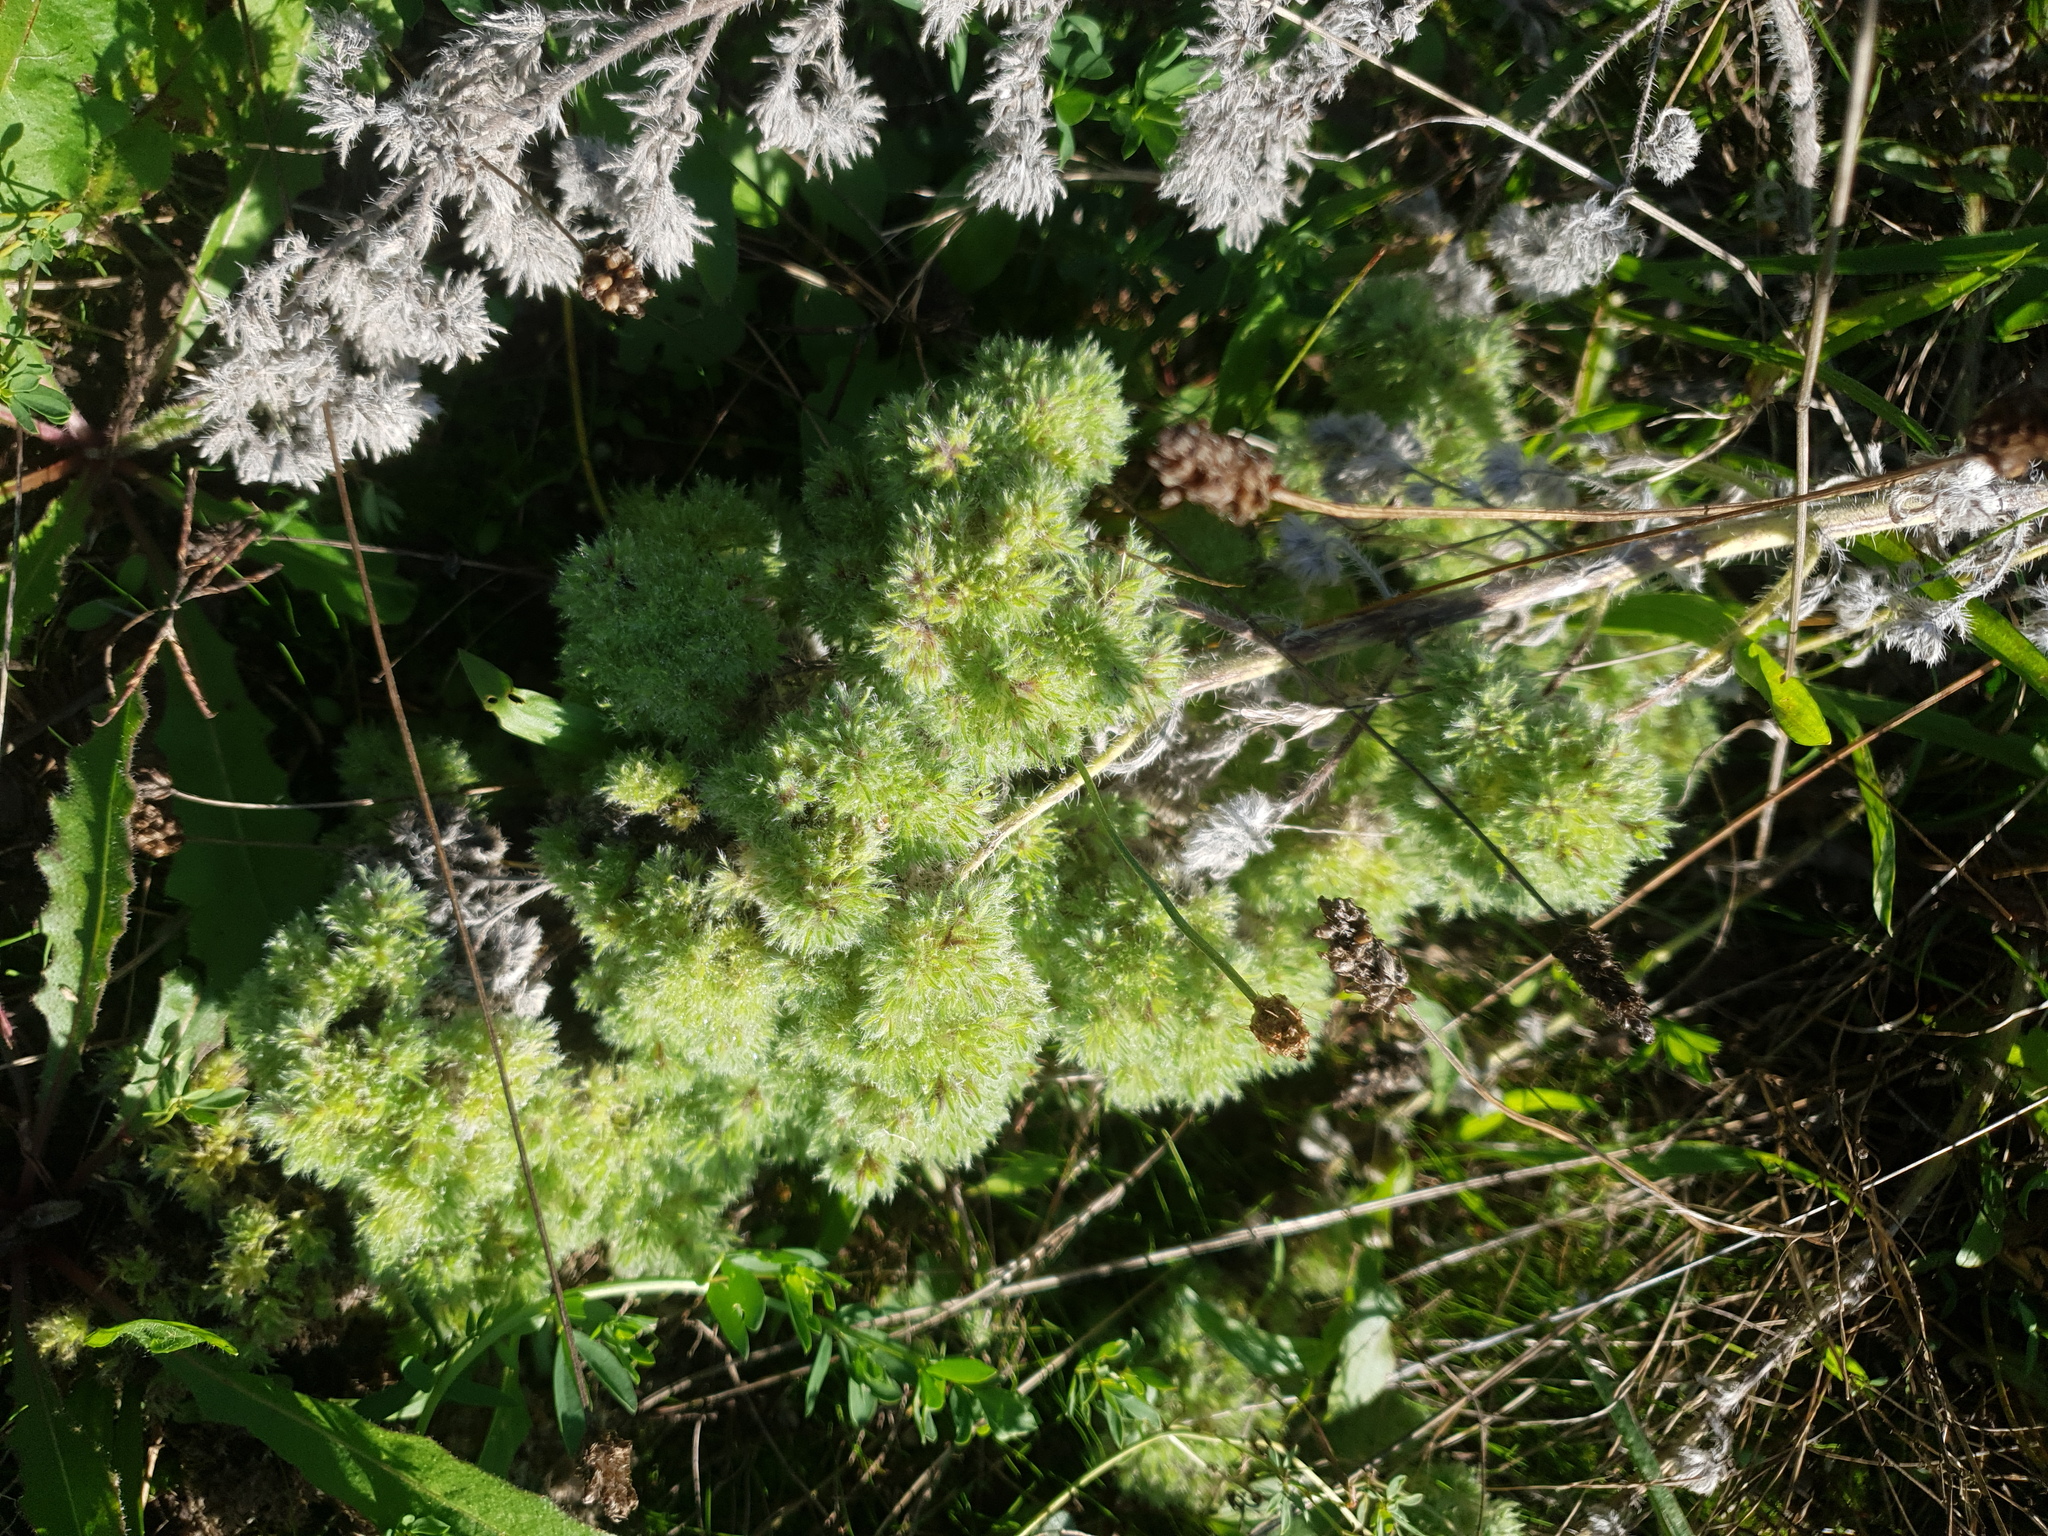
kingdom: Animalia
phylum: Arthropoda
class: Arachnida
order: Trombidiformes
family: Eriophyidae
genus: Aceria
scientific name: Aceria echii
